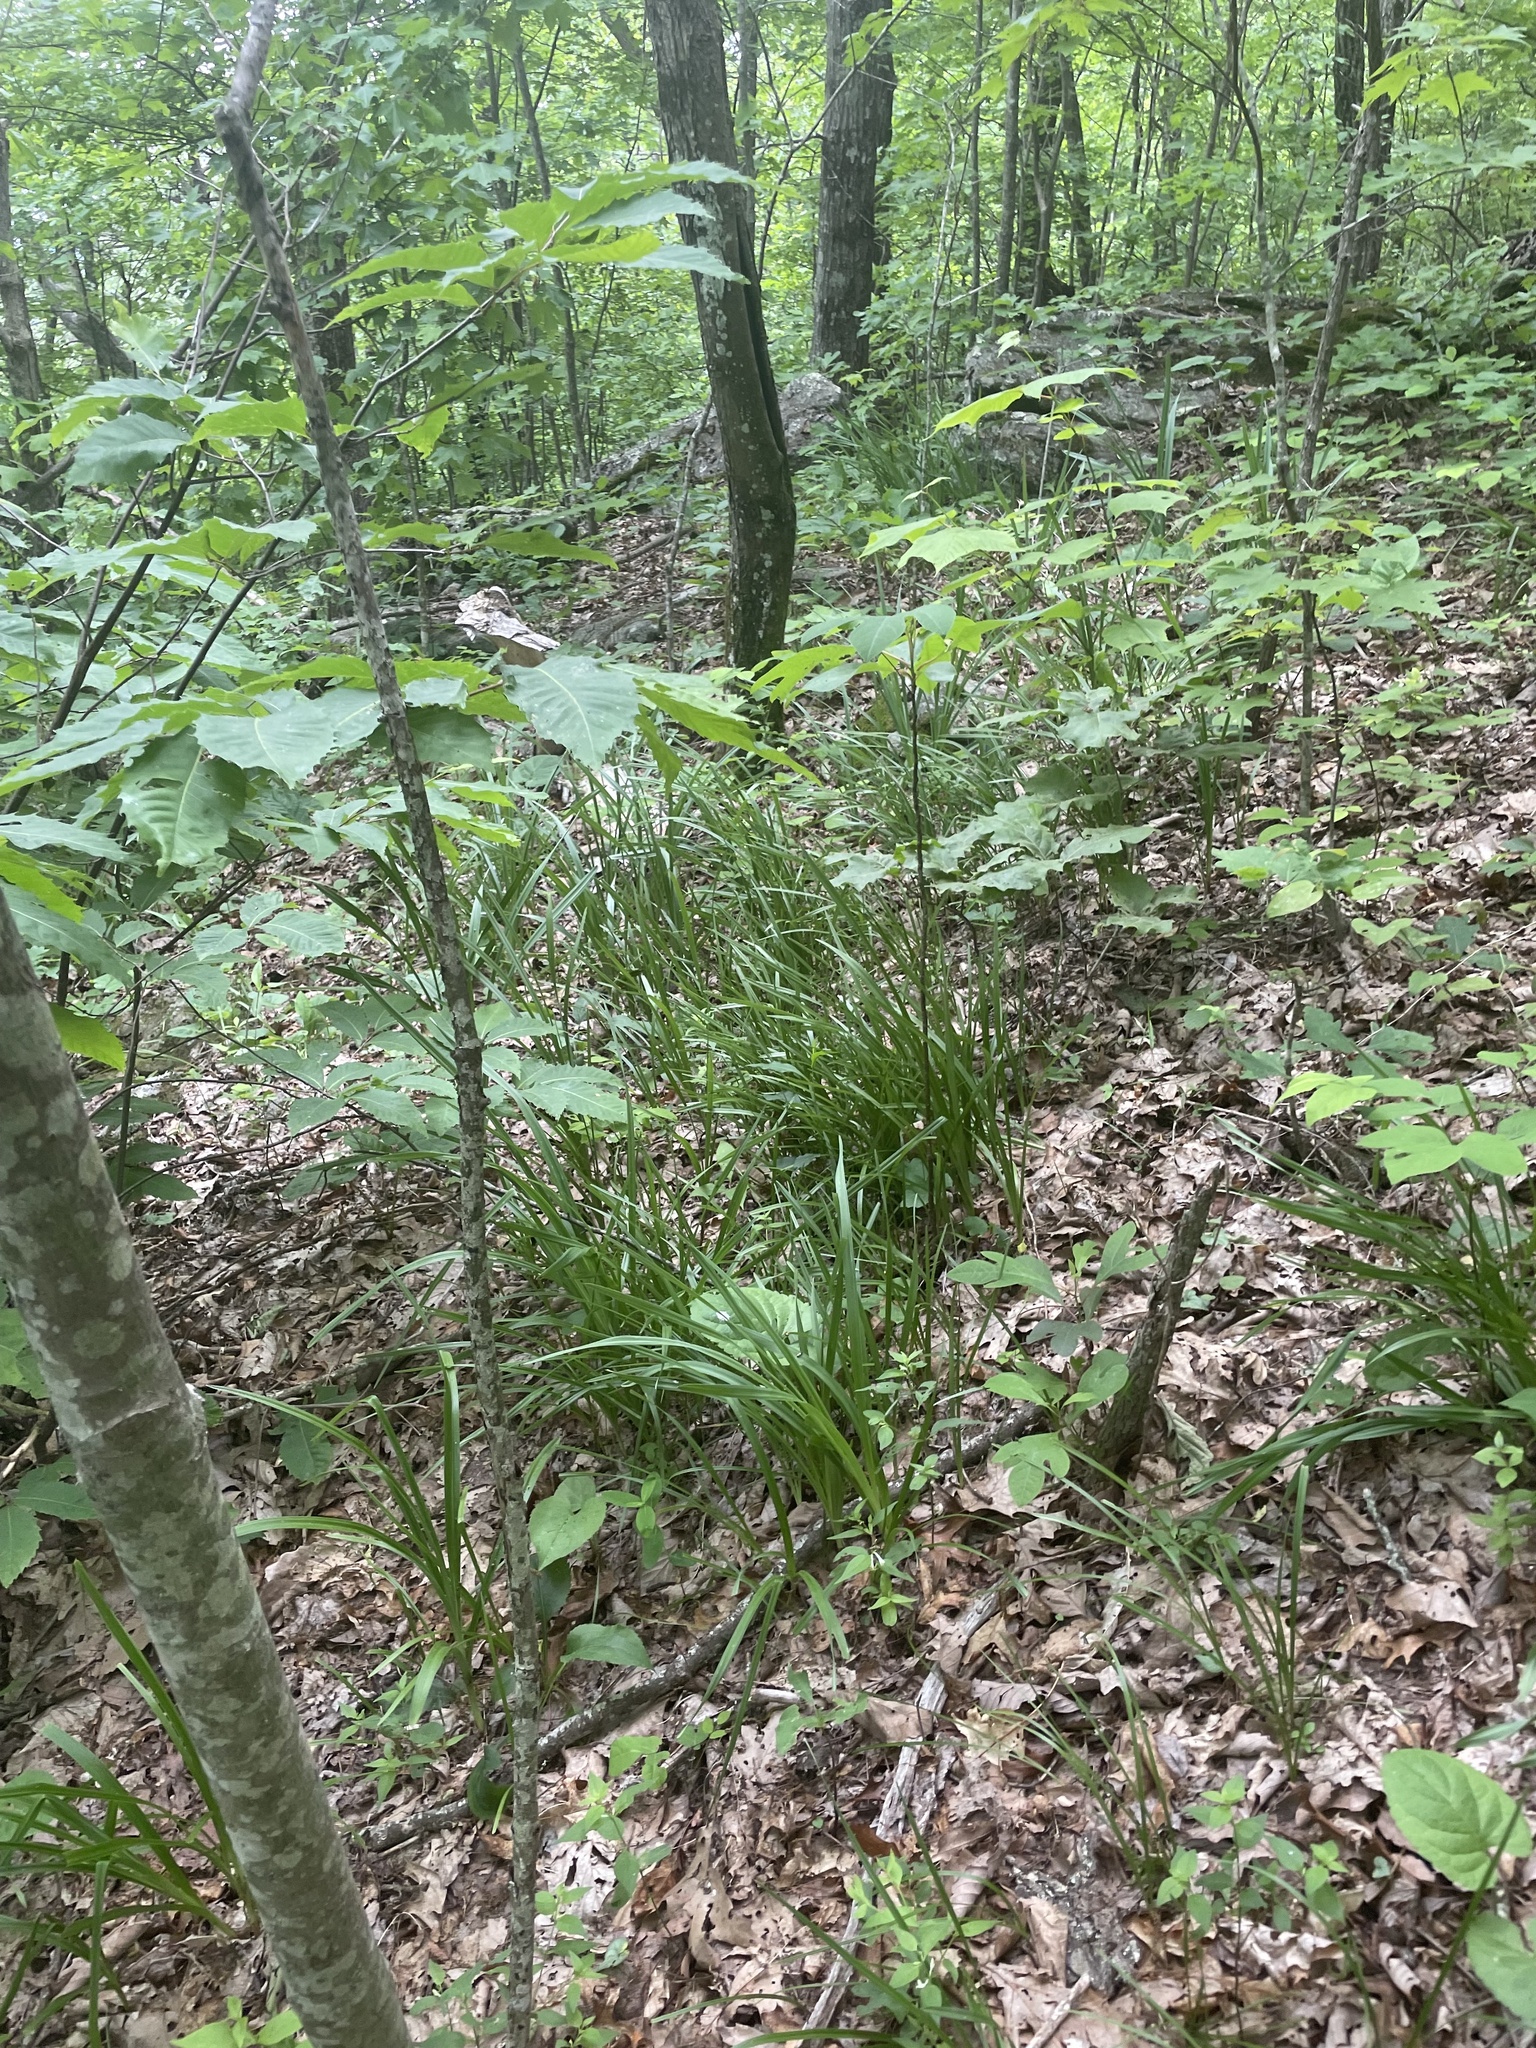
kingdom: Plantae
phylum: Tracheophyta
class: Liliopsida
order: Liliales
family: Melanthiaceae
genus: Stenanthium
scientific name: Stenanthium gramineum
